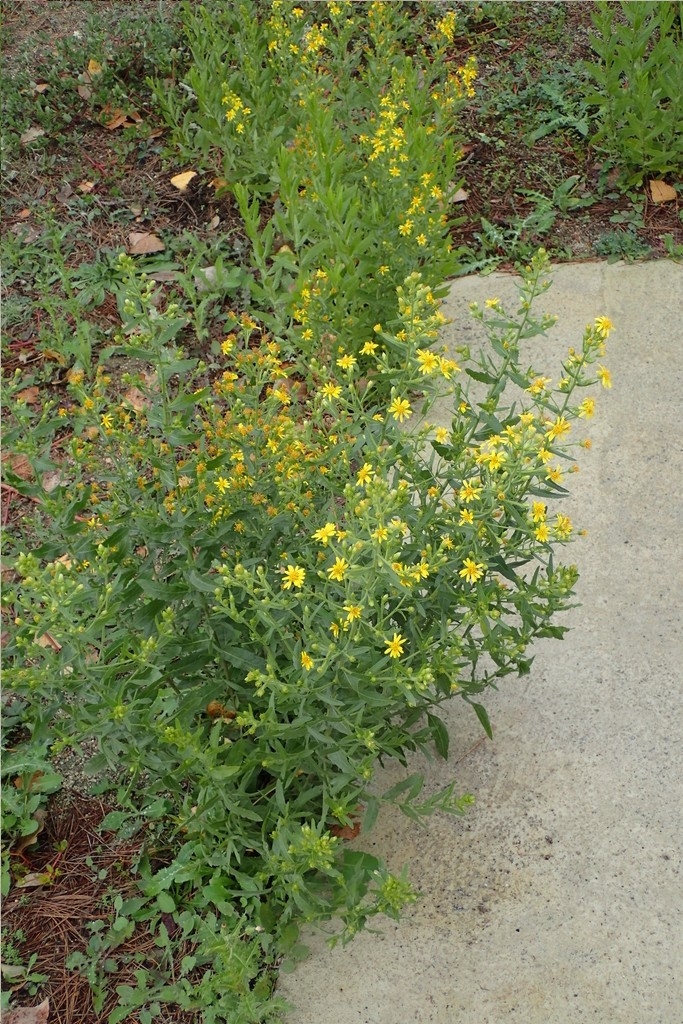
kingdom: Plantae
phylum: Tracheophyta
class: Magnoliopsida
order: Asterales
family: Asteraceae
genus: Dittrichia
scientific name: Dittrichia viscosa
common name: Woody fleabane
